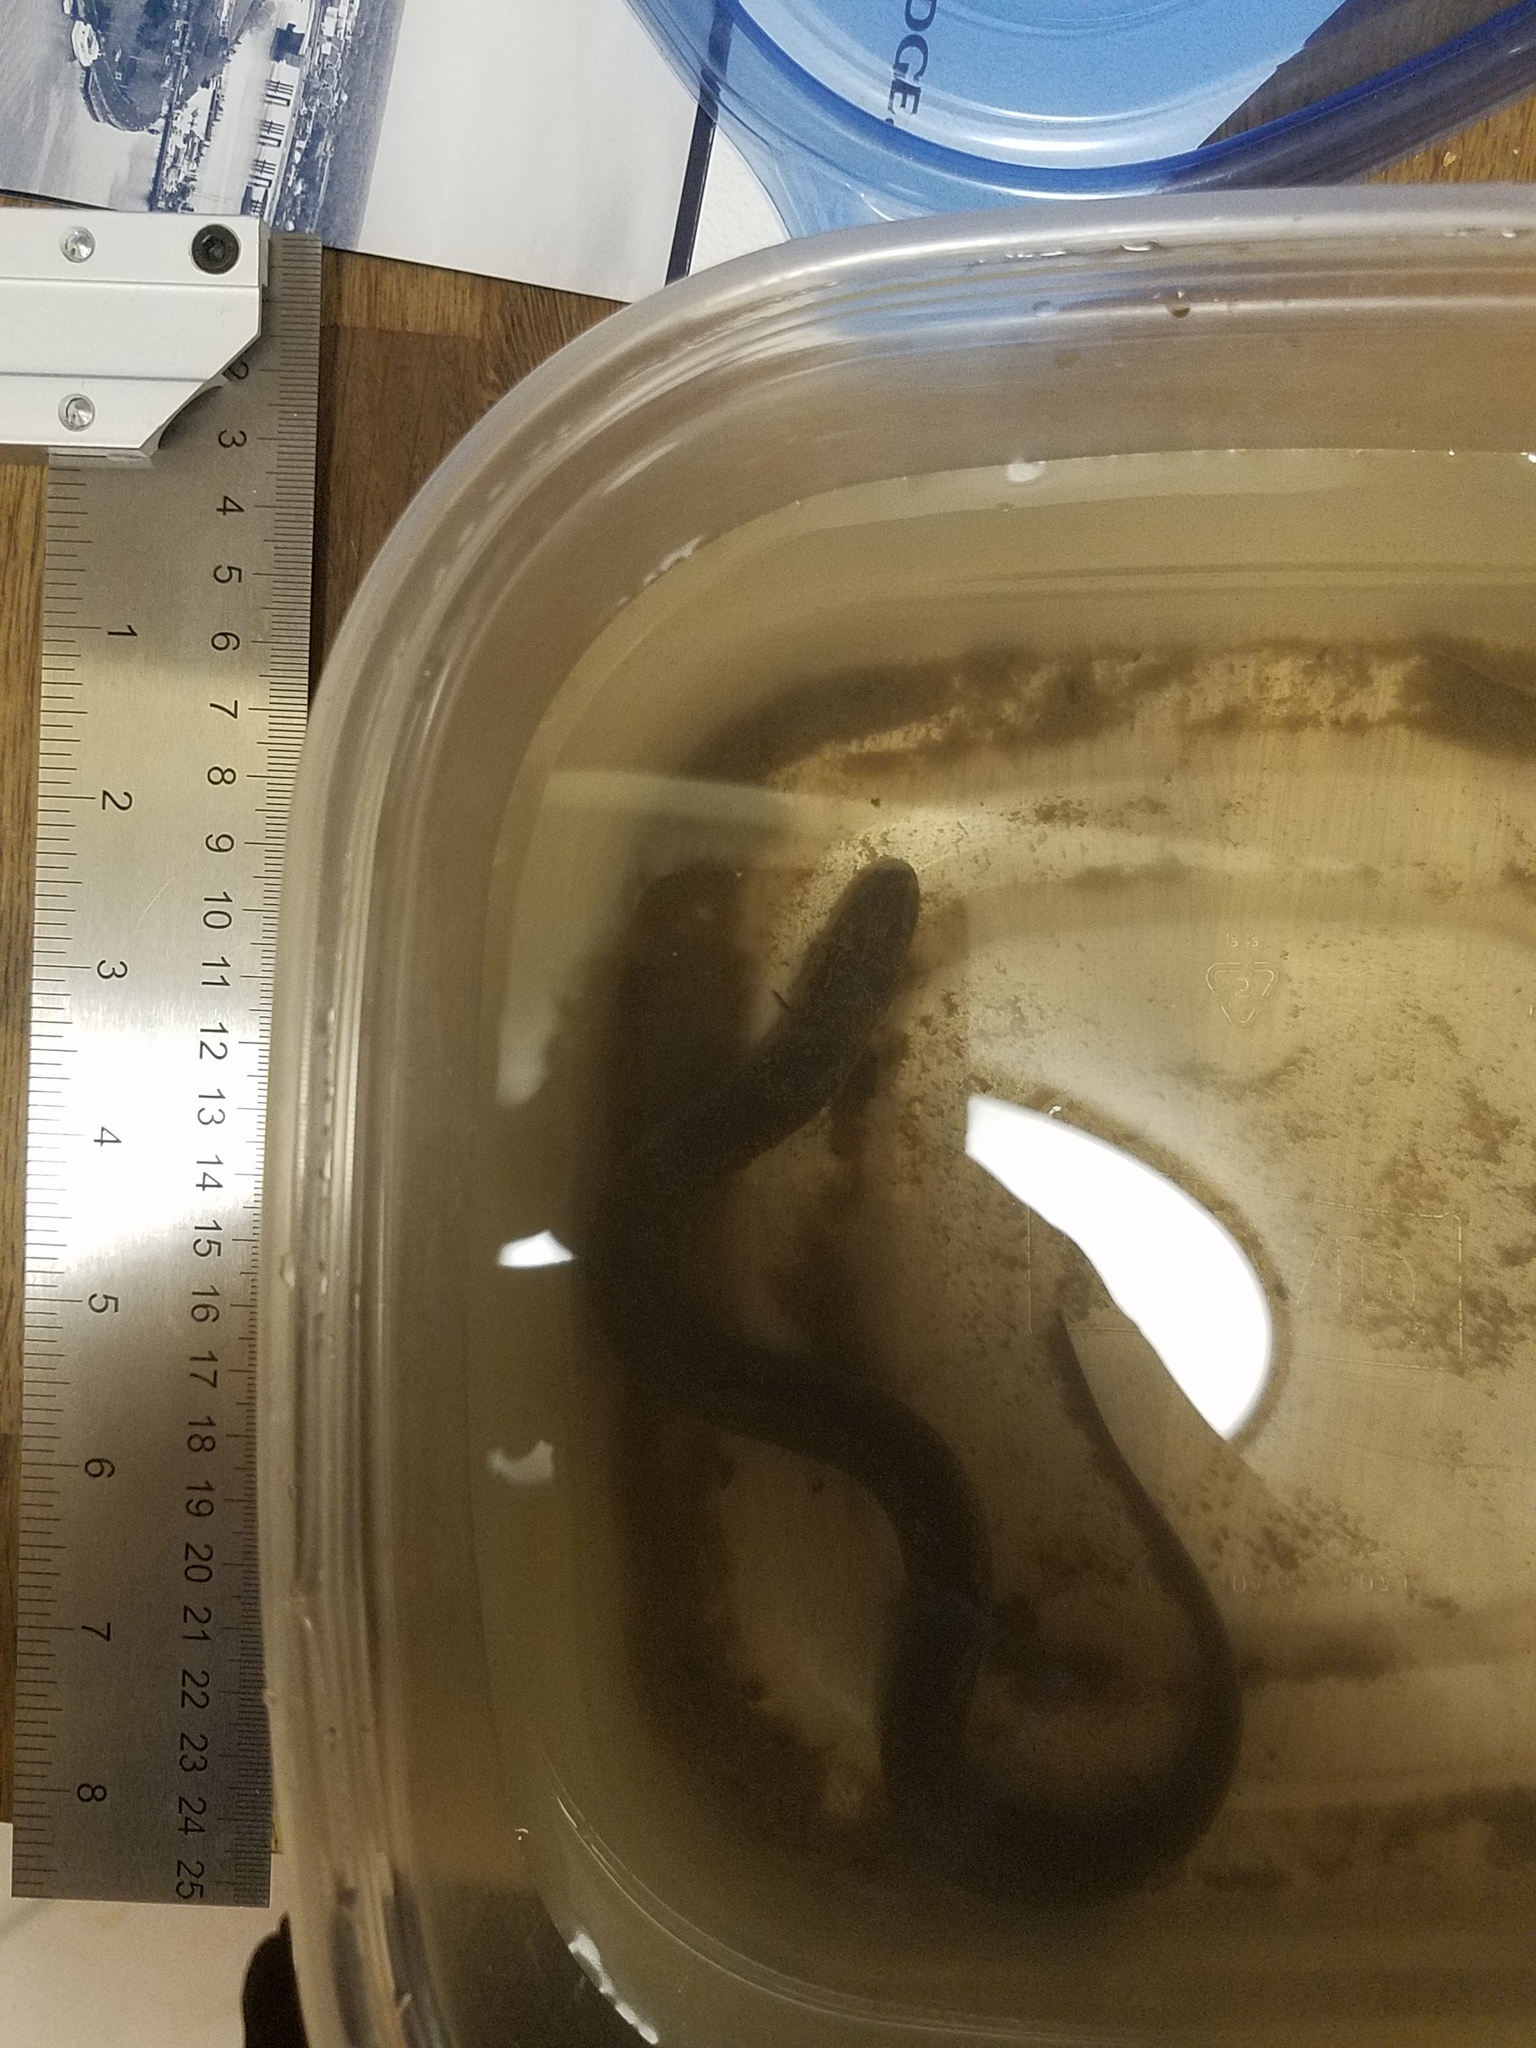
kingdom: Animalia
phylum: Chordata
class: Amphibia
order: Caudata
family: Amphiumidae
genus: Amphiuma
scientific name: Amphiuma means
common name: Two-toed amphiuma
